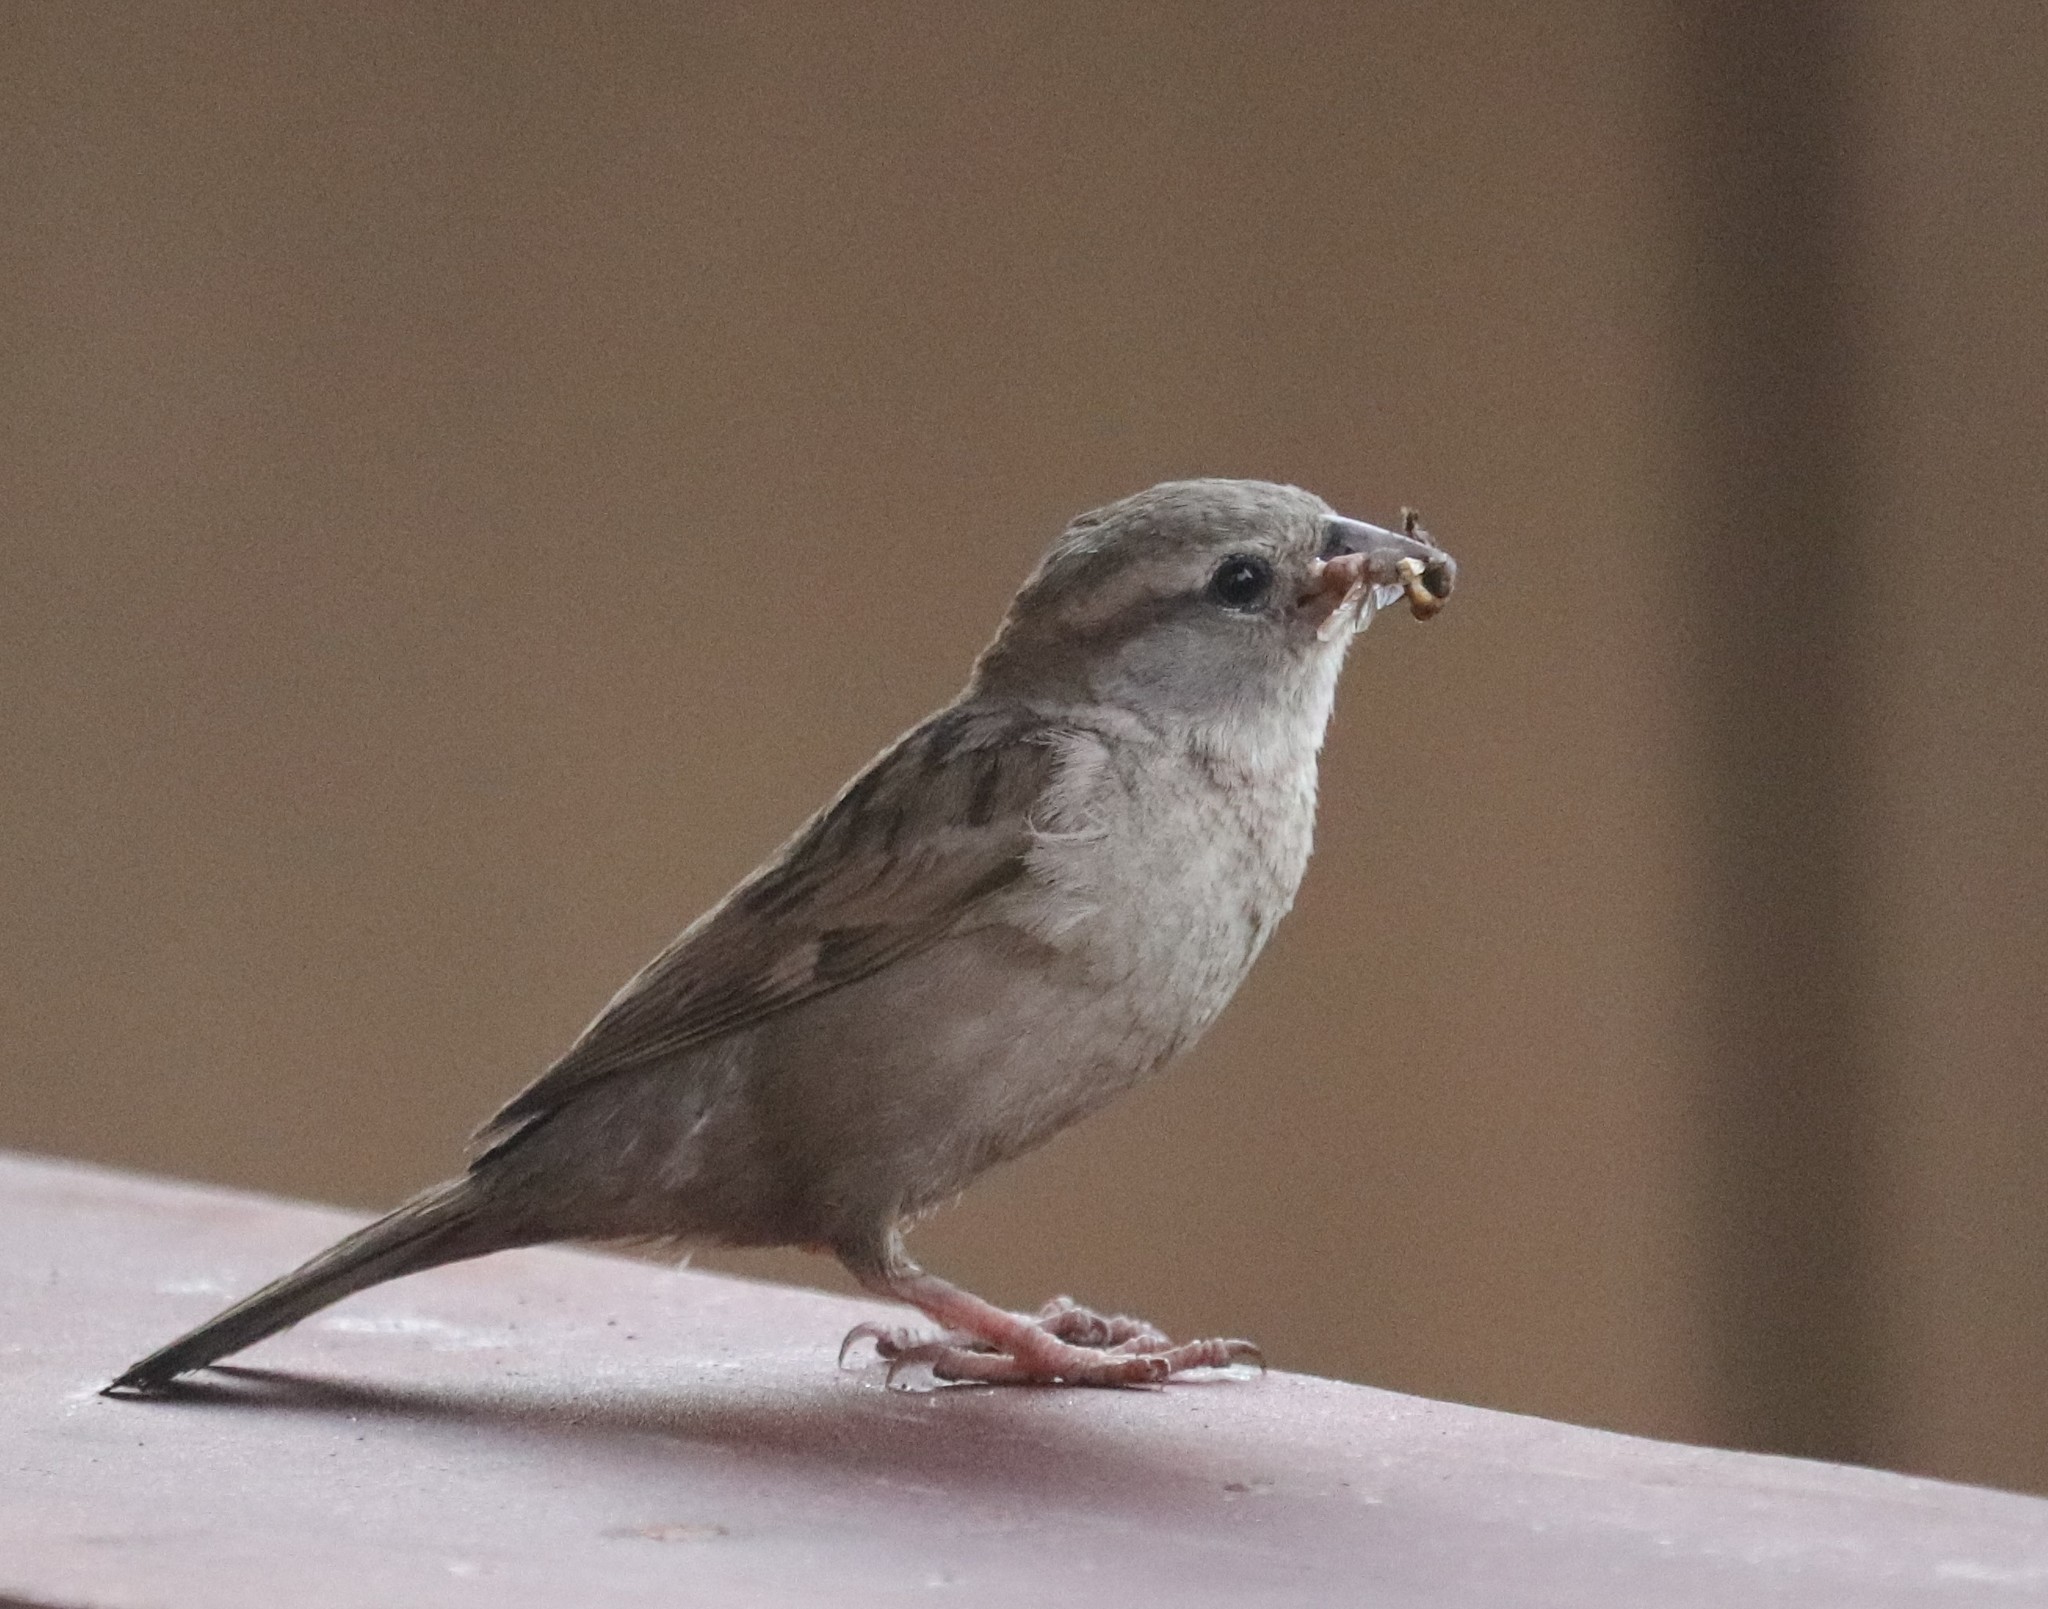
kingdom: Animalia
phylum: Chordata
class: Aves
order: Passeriformes
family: Passeridae
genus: Passer
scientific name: Passer domesticus
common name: House sparrow
